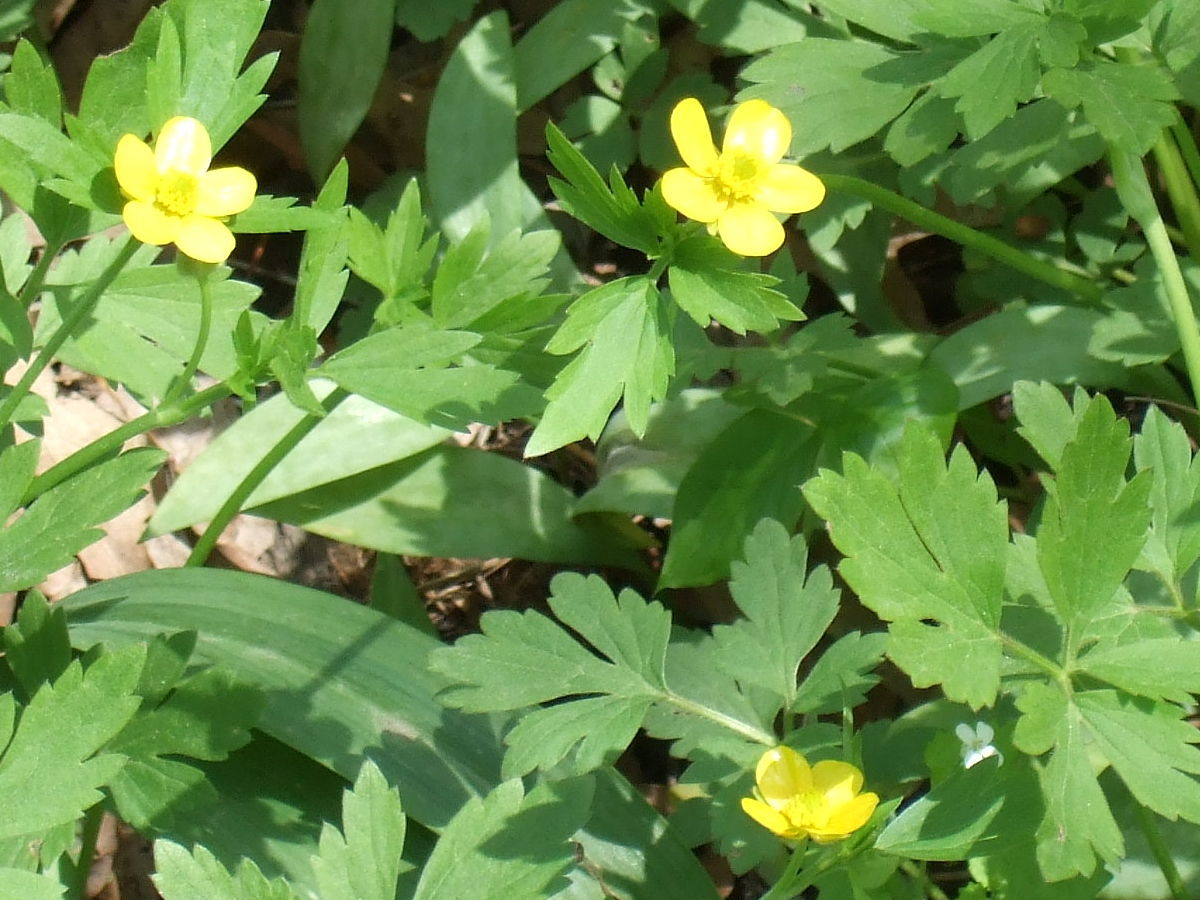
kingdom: Plantae
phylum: Tracheophyta
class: Magnoliopsida
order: Ranunculales
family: Ranunculaceae
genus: Ranunculus
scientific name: Ranunculus hispidus
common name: Bristly buttercup
